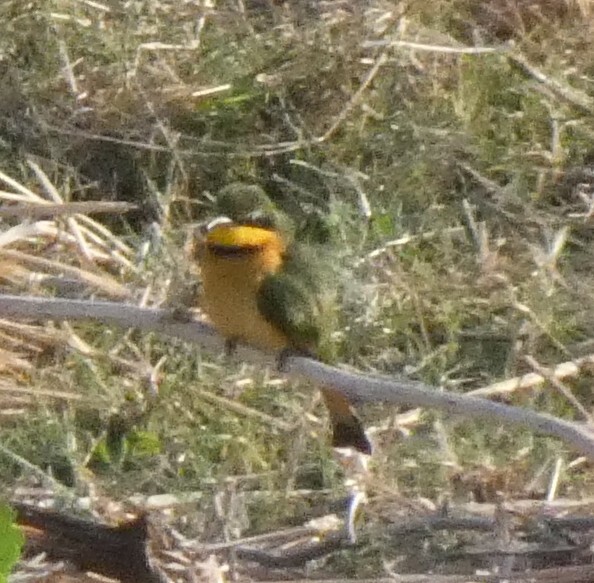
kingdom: Animalia
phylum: Chordata
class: Aves
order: Coraciiformes
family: Meropidae
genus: Merops
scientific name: Merops pusillus
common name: Little bee-eater
